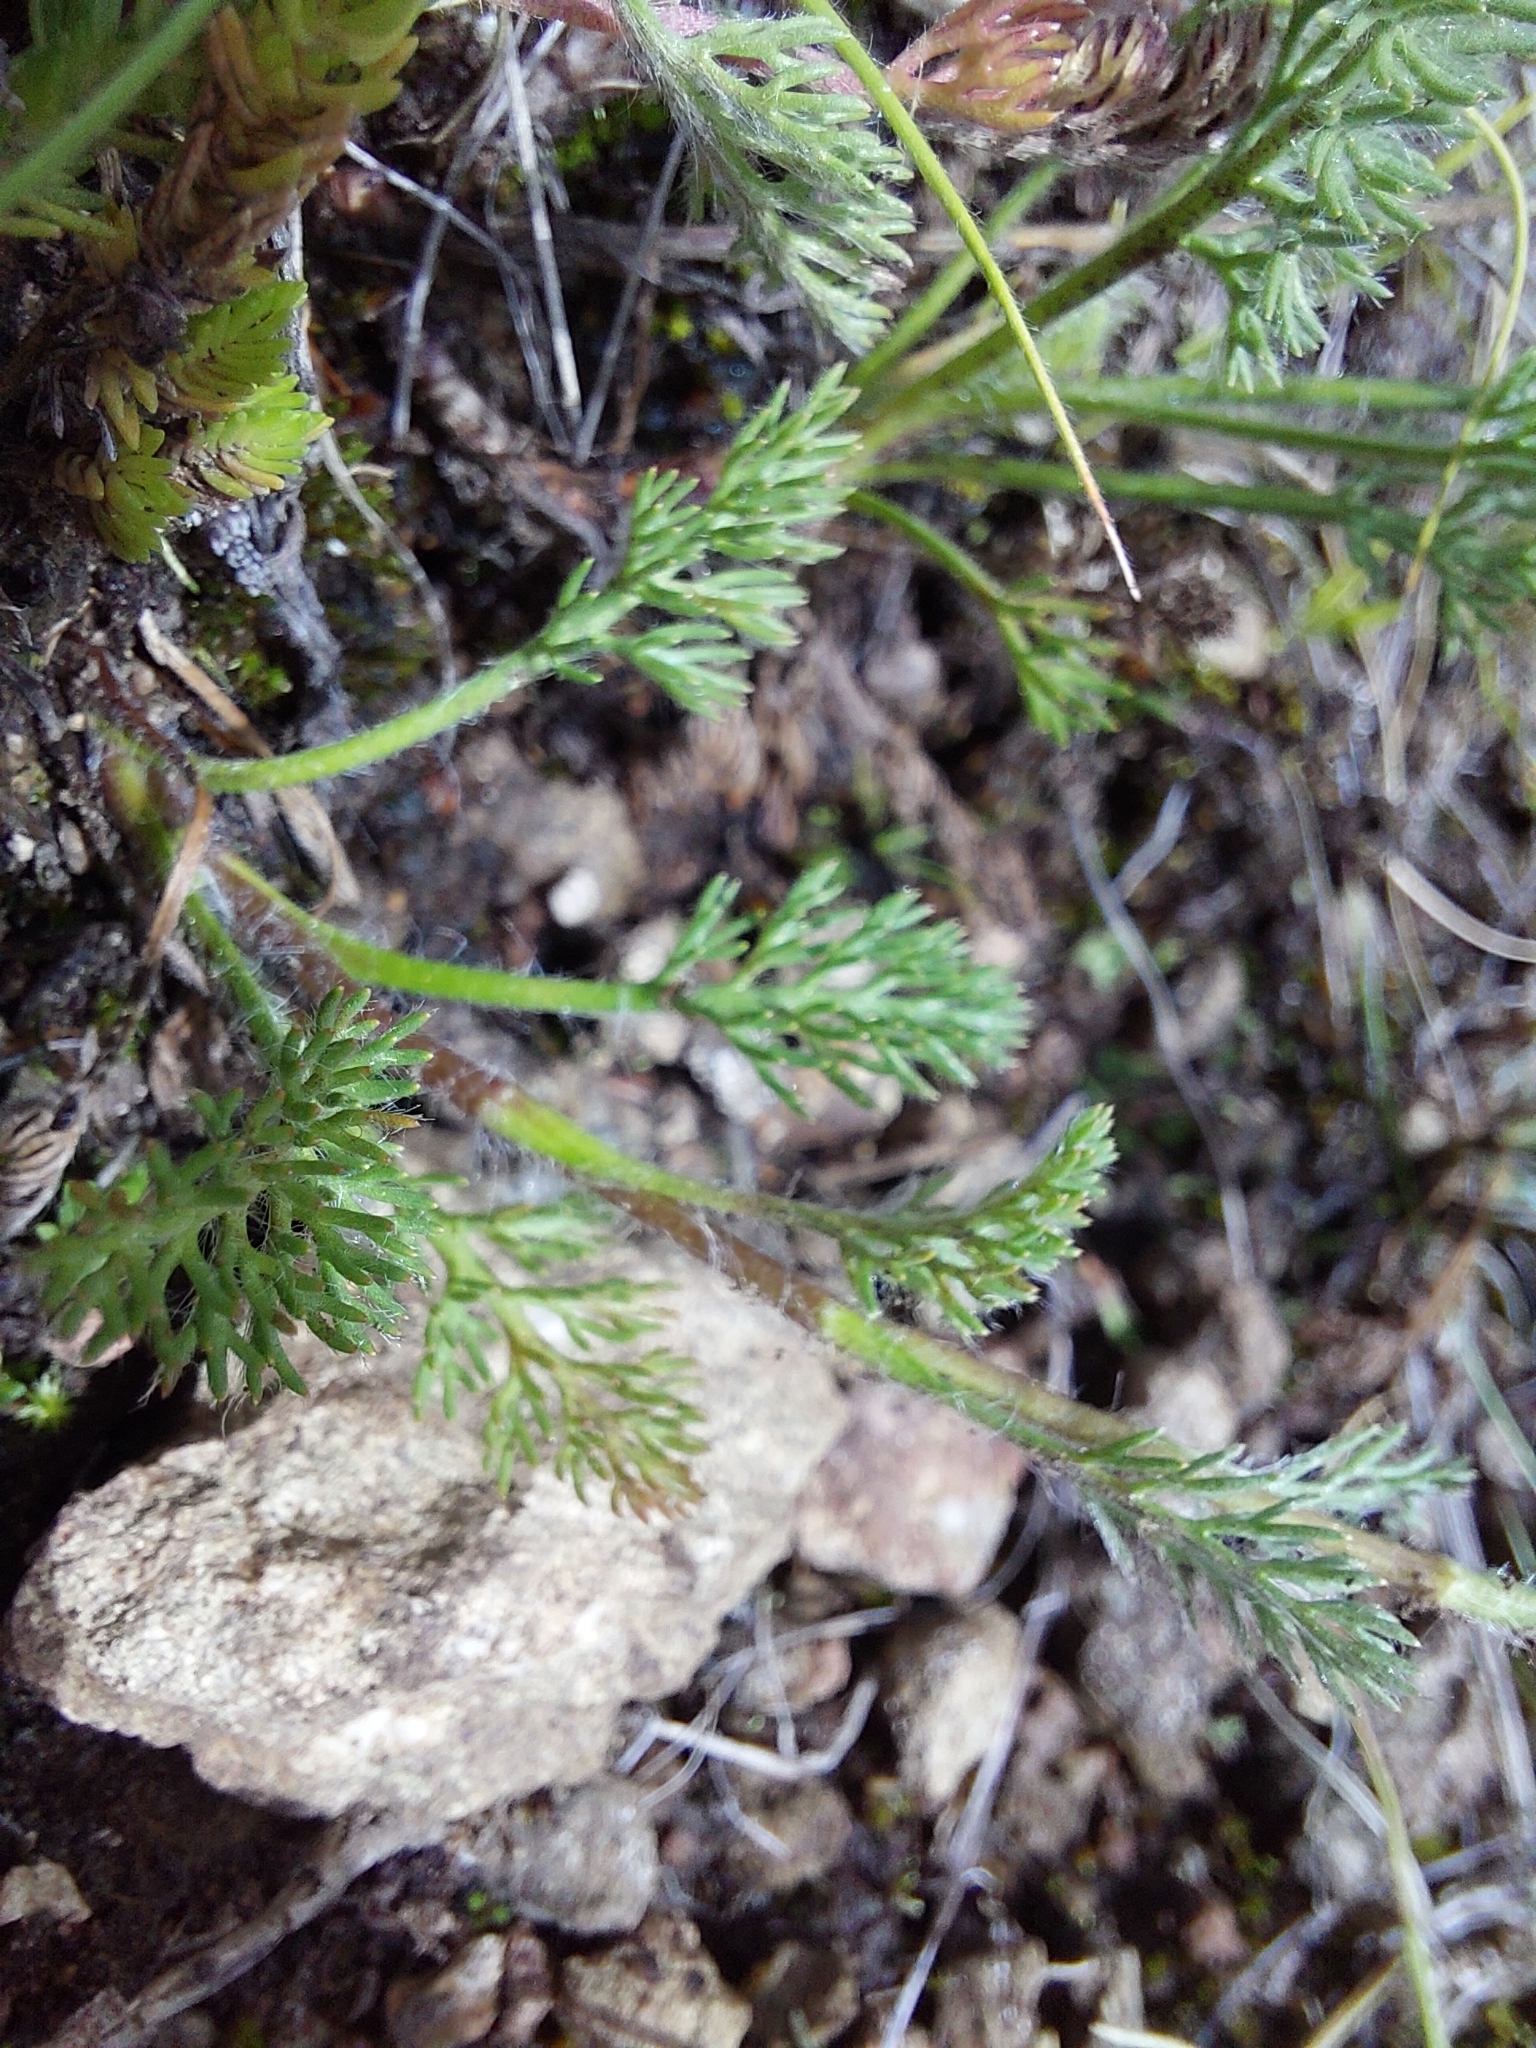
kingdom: Plantae
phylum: Tracheophyta
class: Magnoliopsida
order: Asterales
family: Asteraceae
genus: Cotula
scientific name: Cotula hispida
